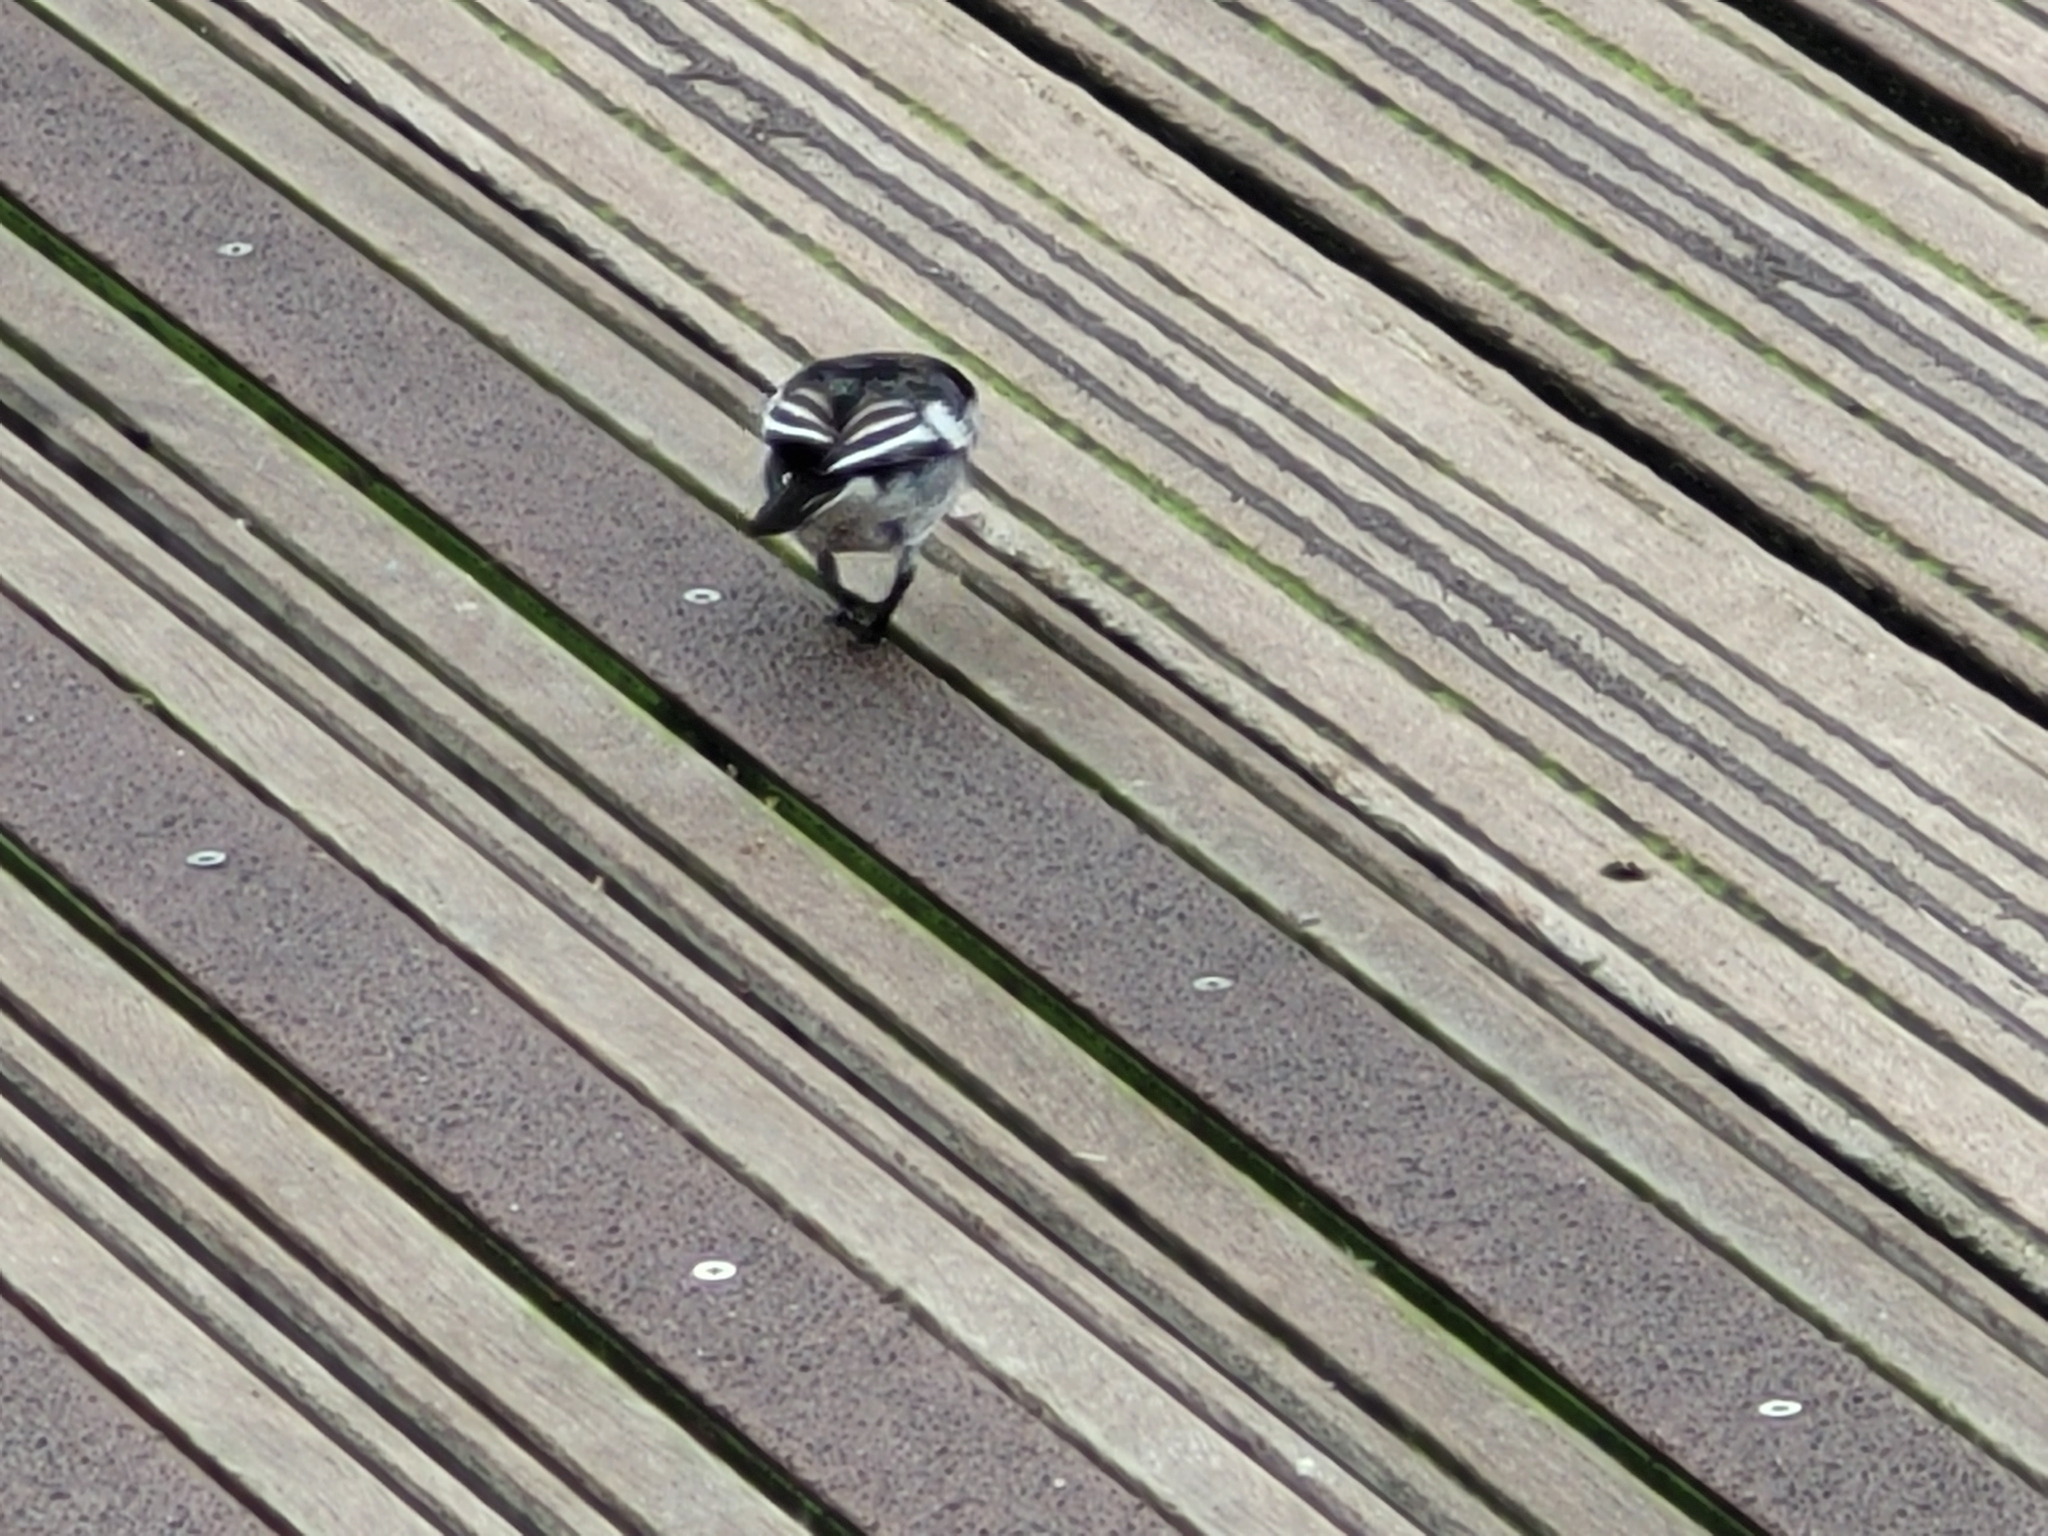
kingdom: Animalia
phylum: Chordata
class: Aves
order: Passeriformes
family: Motacillidae
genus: Motacilla
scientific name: Motacilla alba
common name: White wagtail
